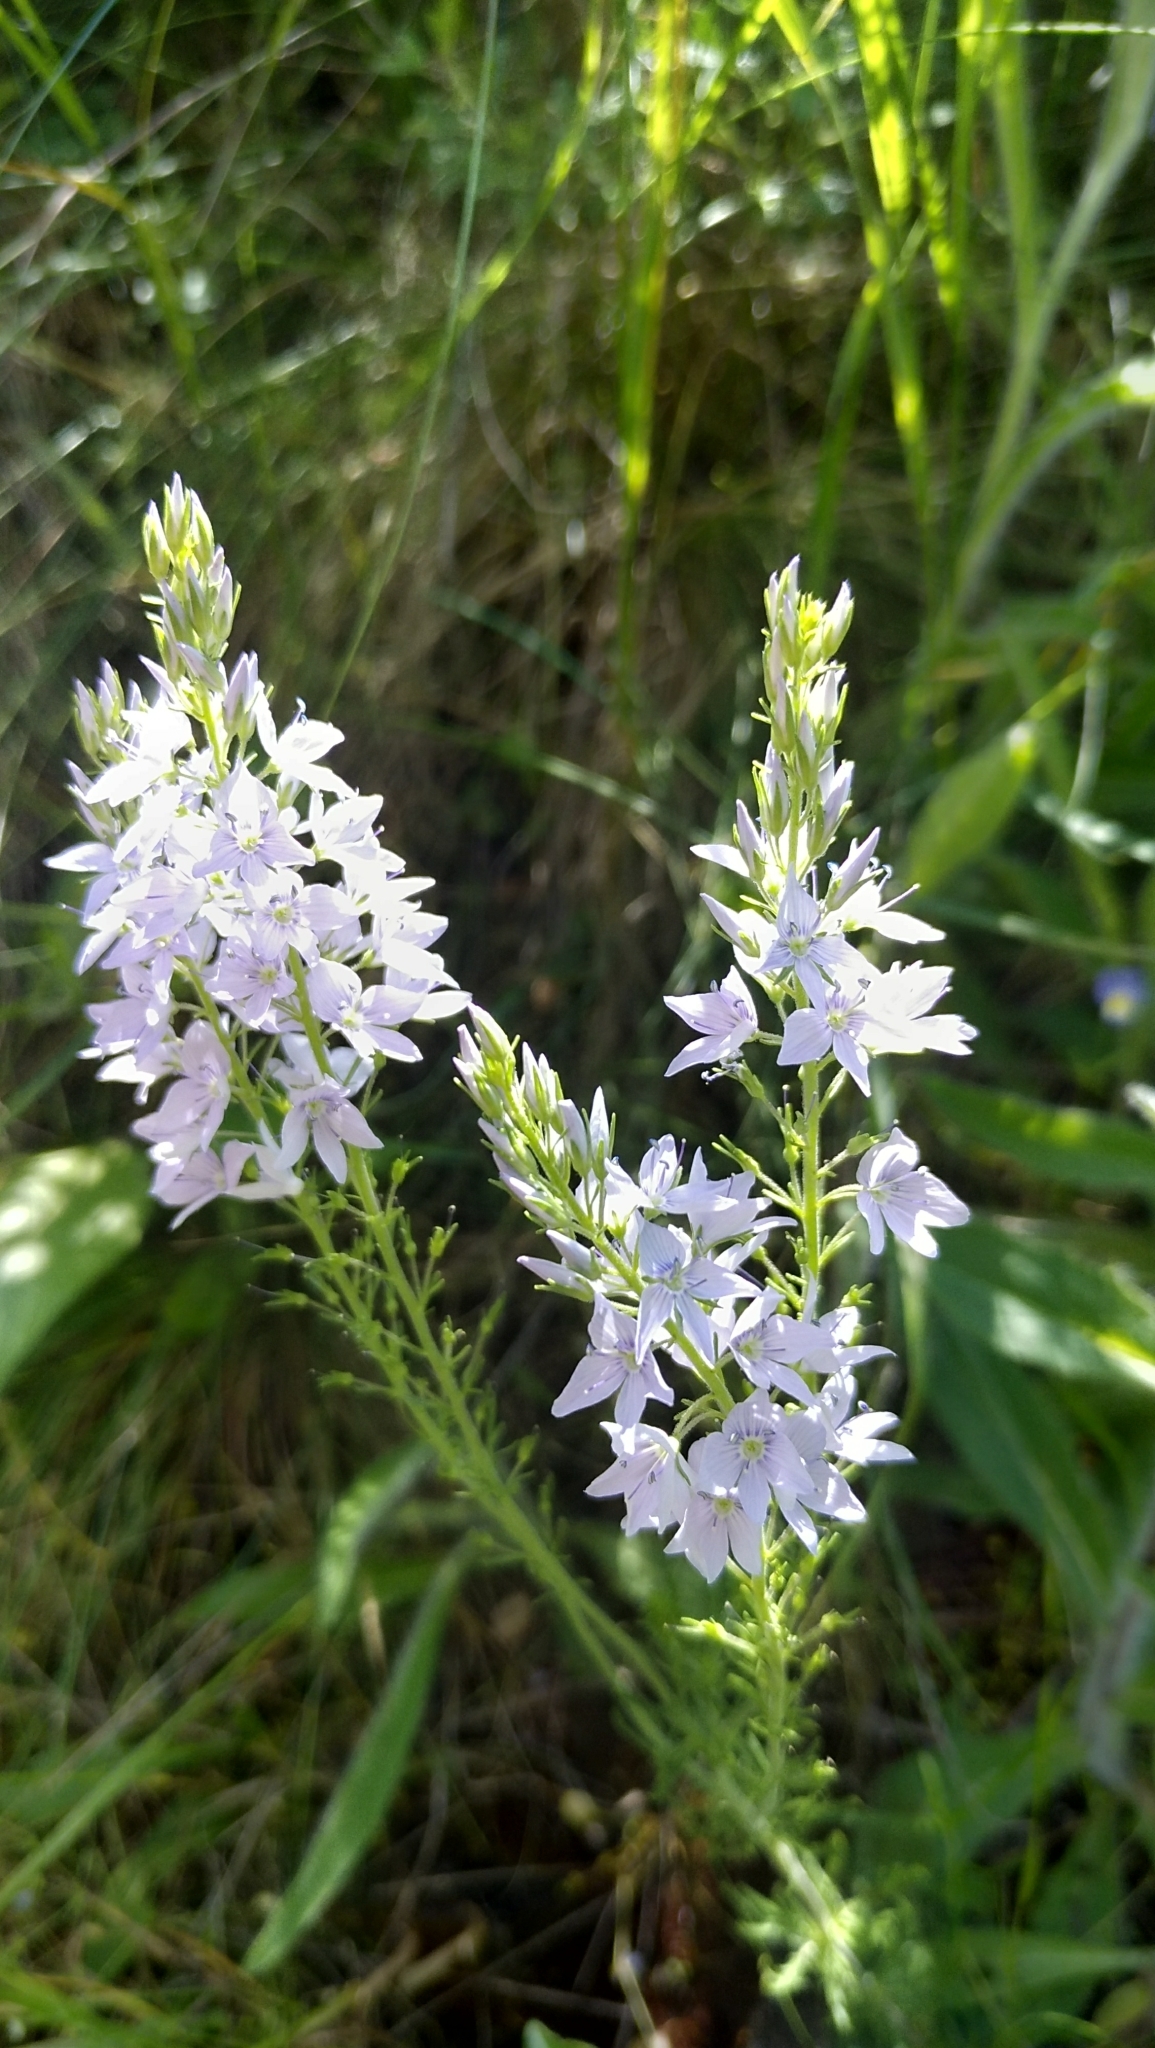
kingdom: Plantae
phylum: Tracheophyta
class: Magnoliopsida
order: Lamiales
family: Plantaginaceae
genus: Veronica
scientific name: Veronica austriaca
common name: Large speedwell
